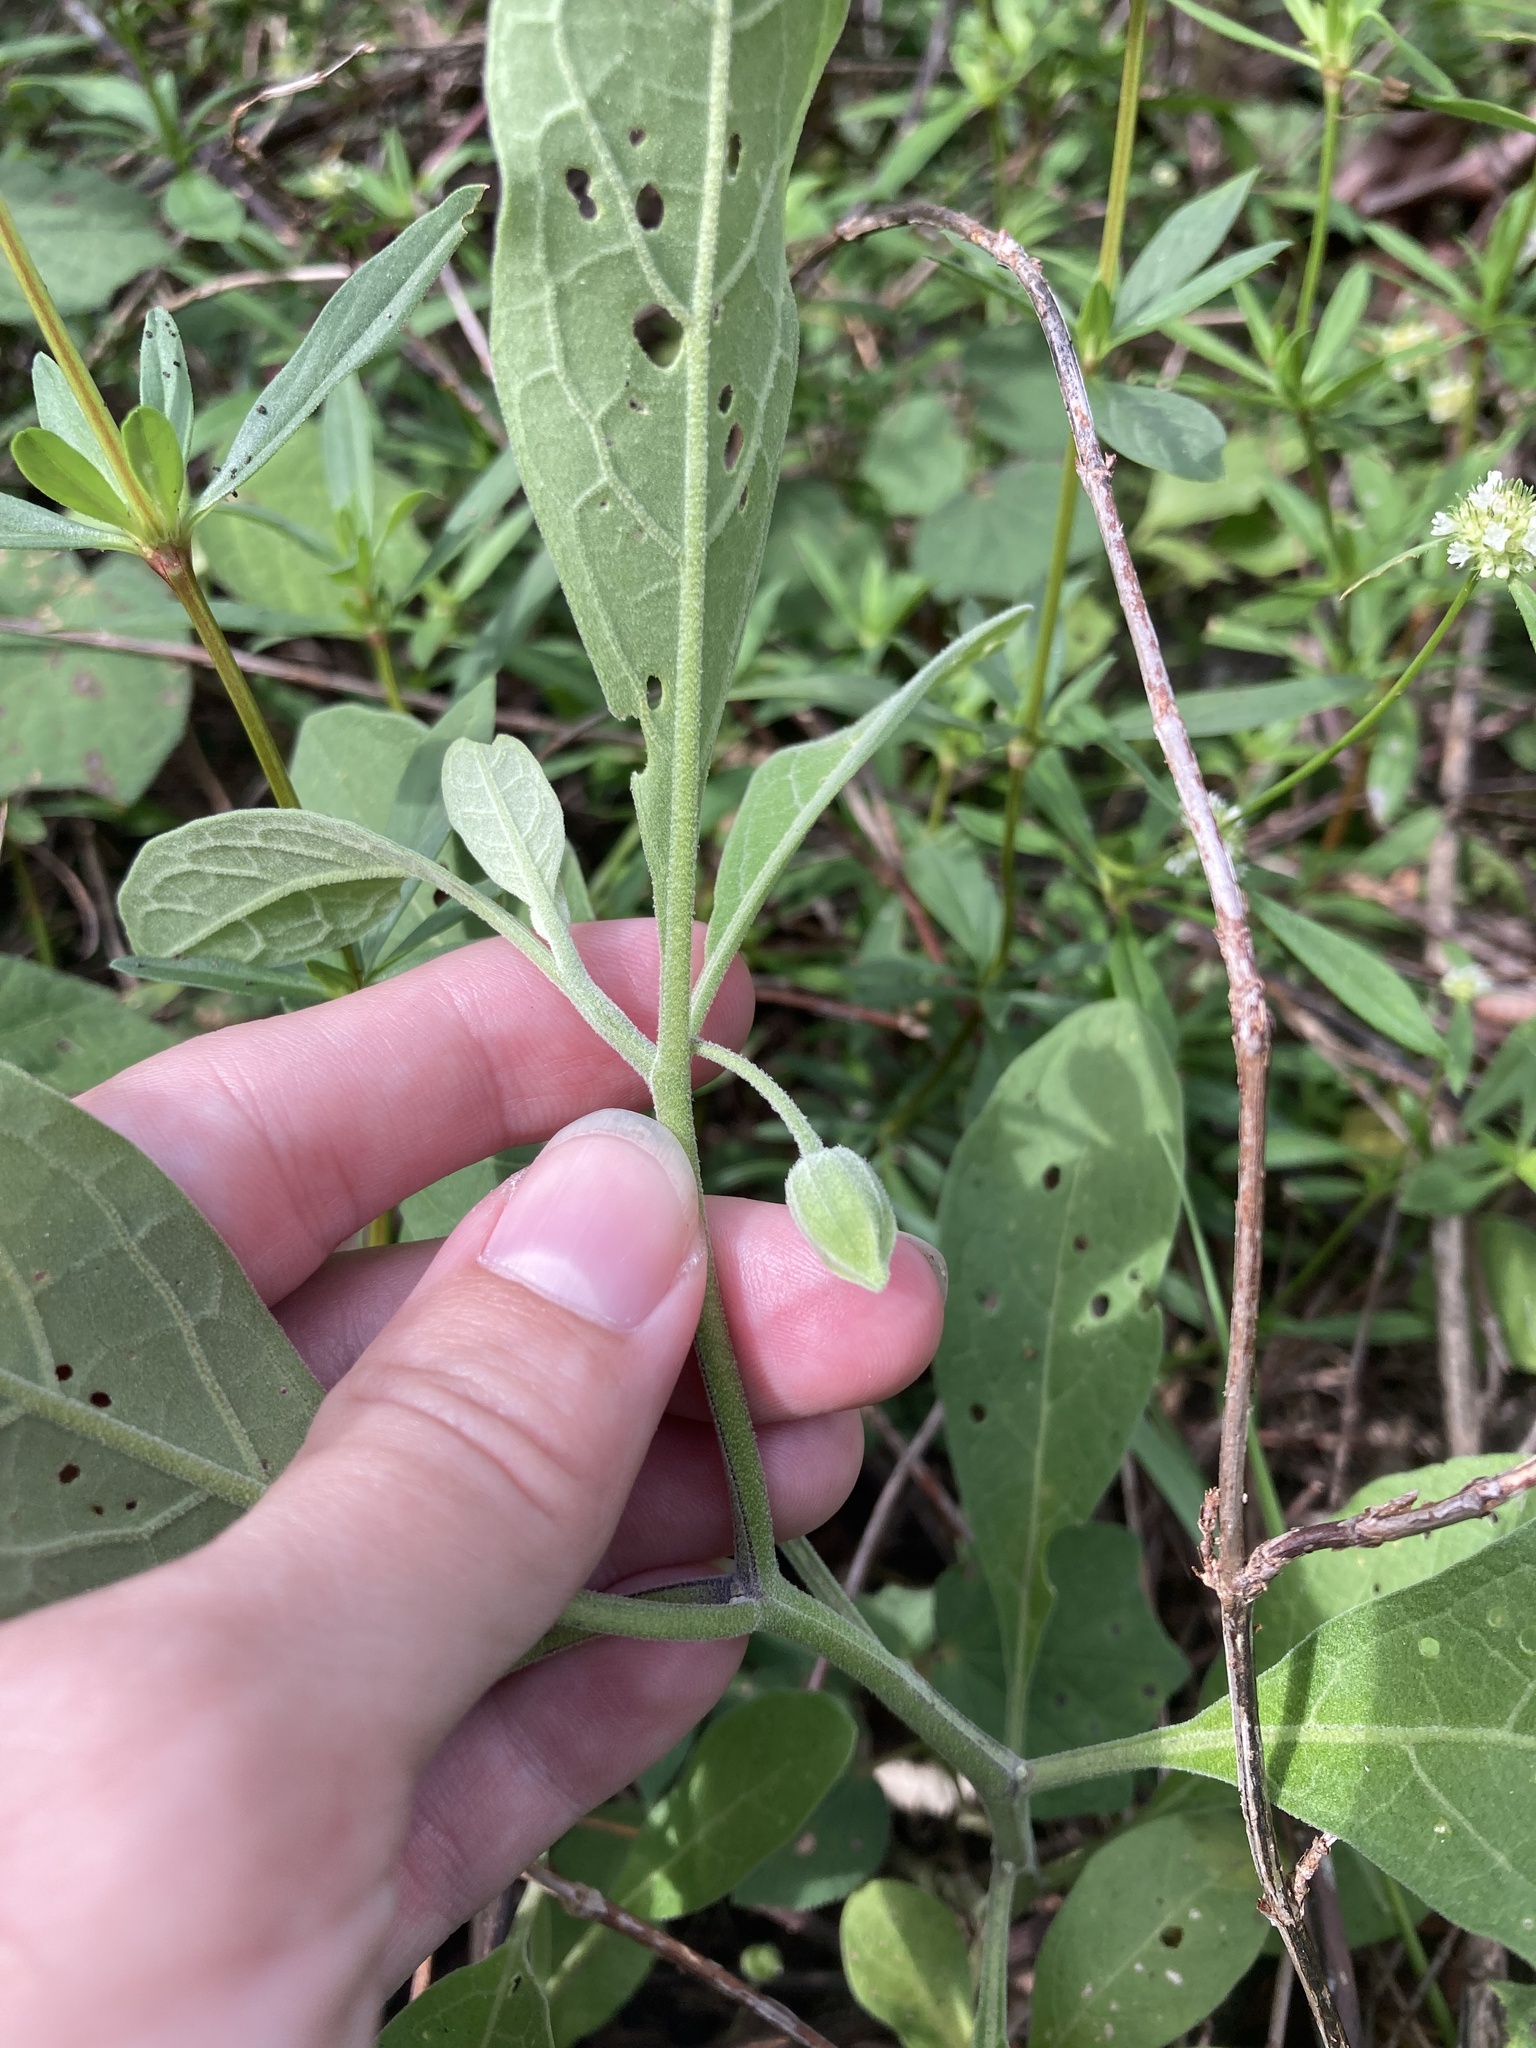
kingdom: Plantae
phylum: Tracheophyta
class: Magnoliopsida
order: Solanales
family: Solanaceae
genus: Physalis
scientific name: Physalis walteri
